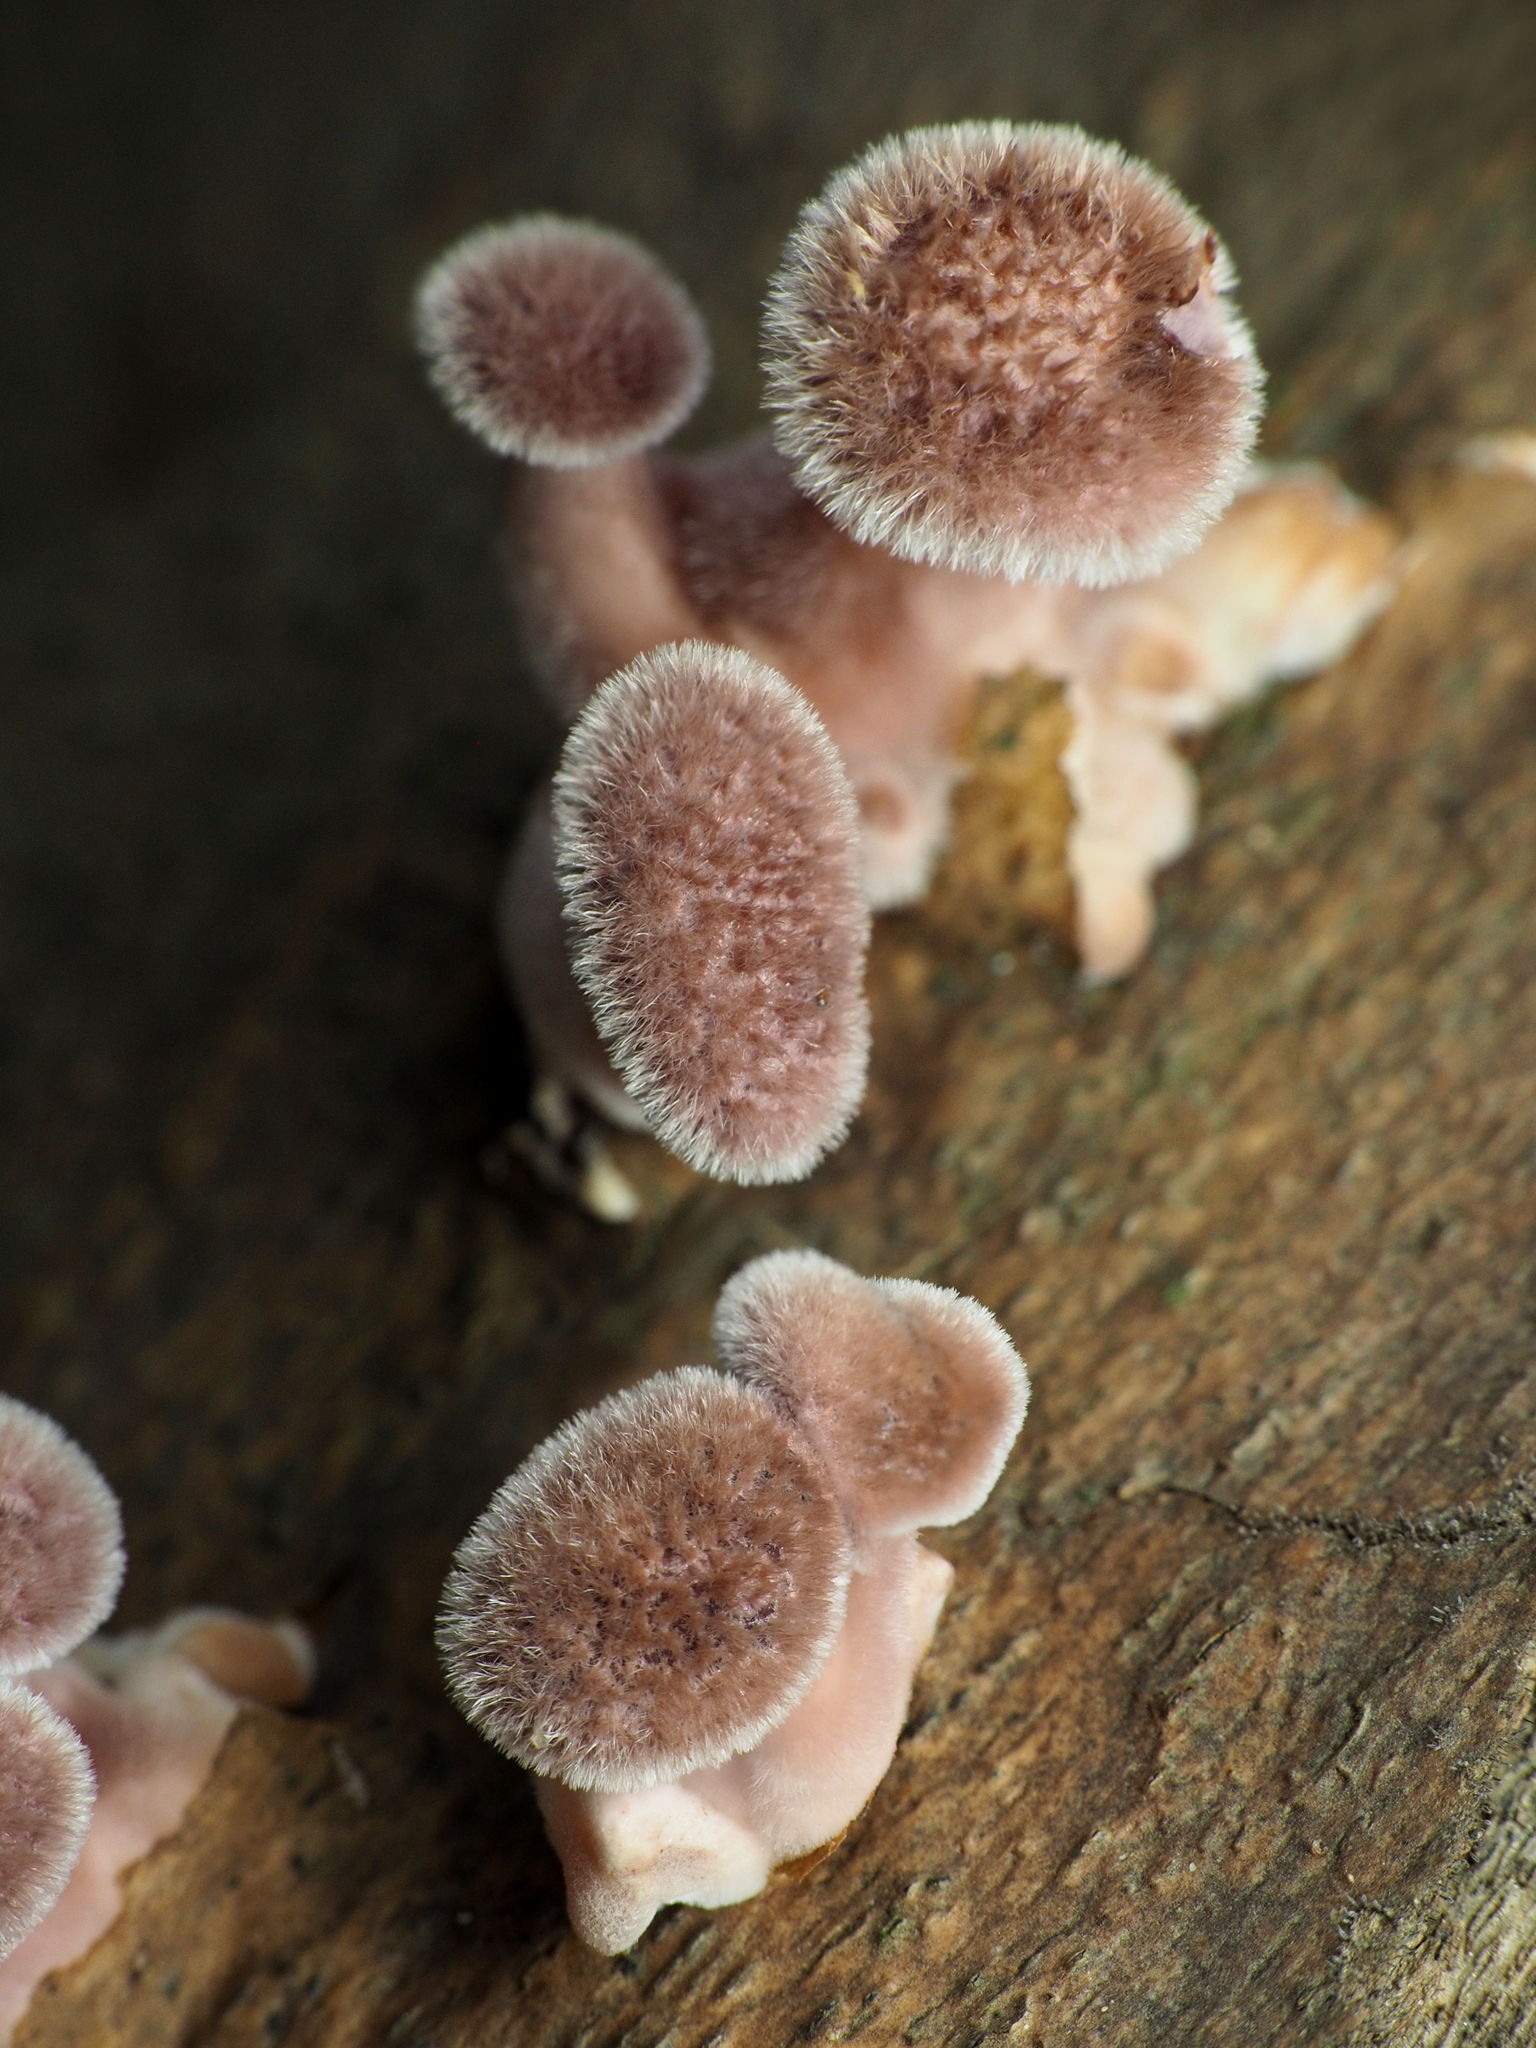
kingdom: Fungi
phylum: Basidiomycota
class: Agaricomycetes
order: Polyporales
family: Panaceae
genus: Panus
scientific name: Panus neostrigosus
